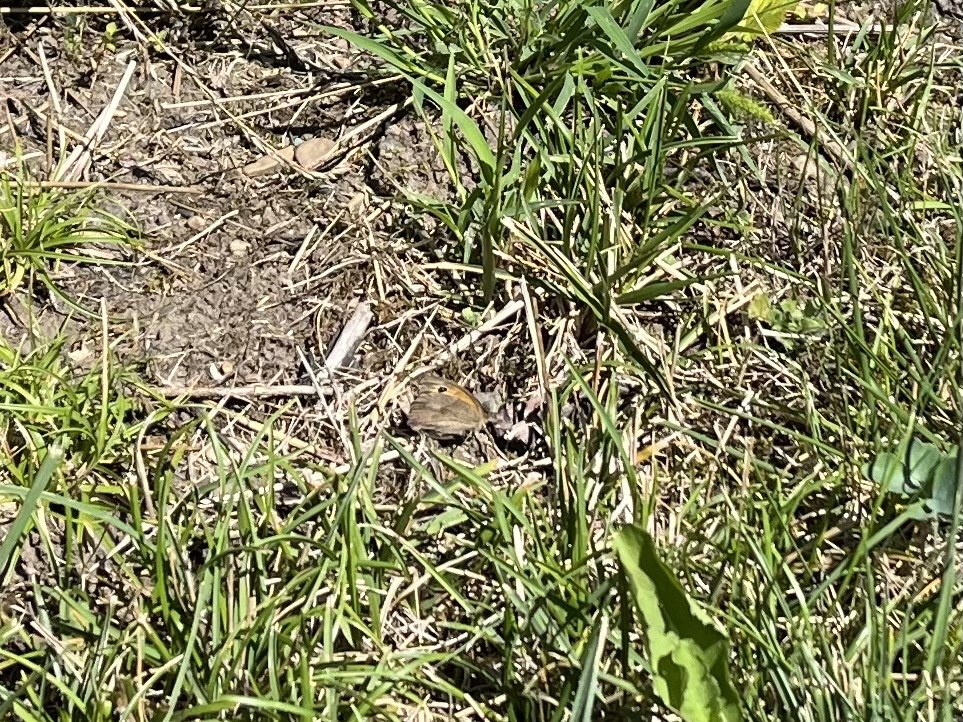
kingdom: Animalia
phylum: Arthropoda
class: Insecta
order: Lepidoptera
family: Nymphalidae
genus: Maniola
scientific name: Maniola jurtina
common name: Meadow brown
